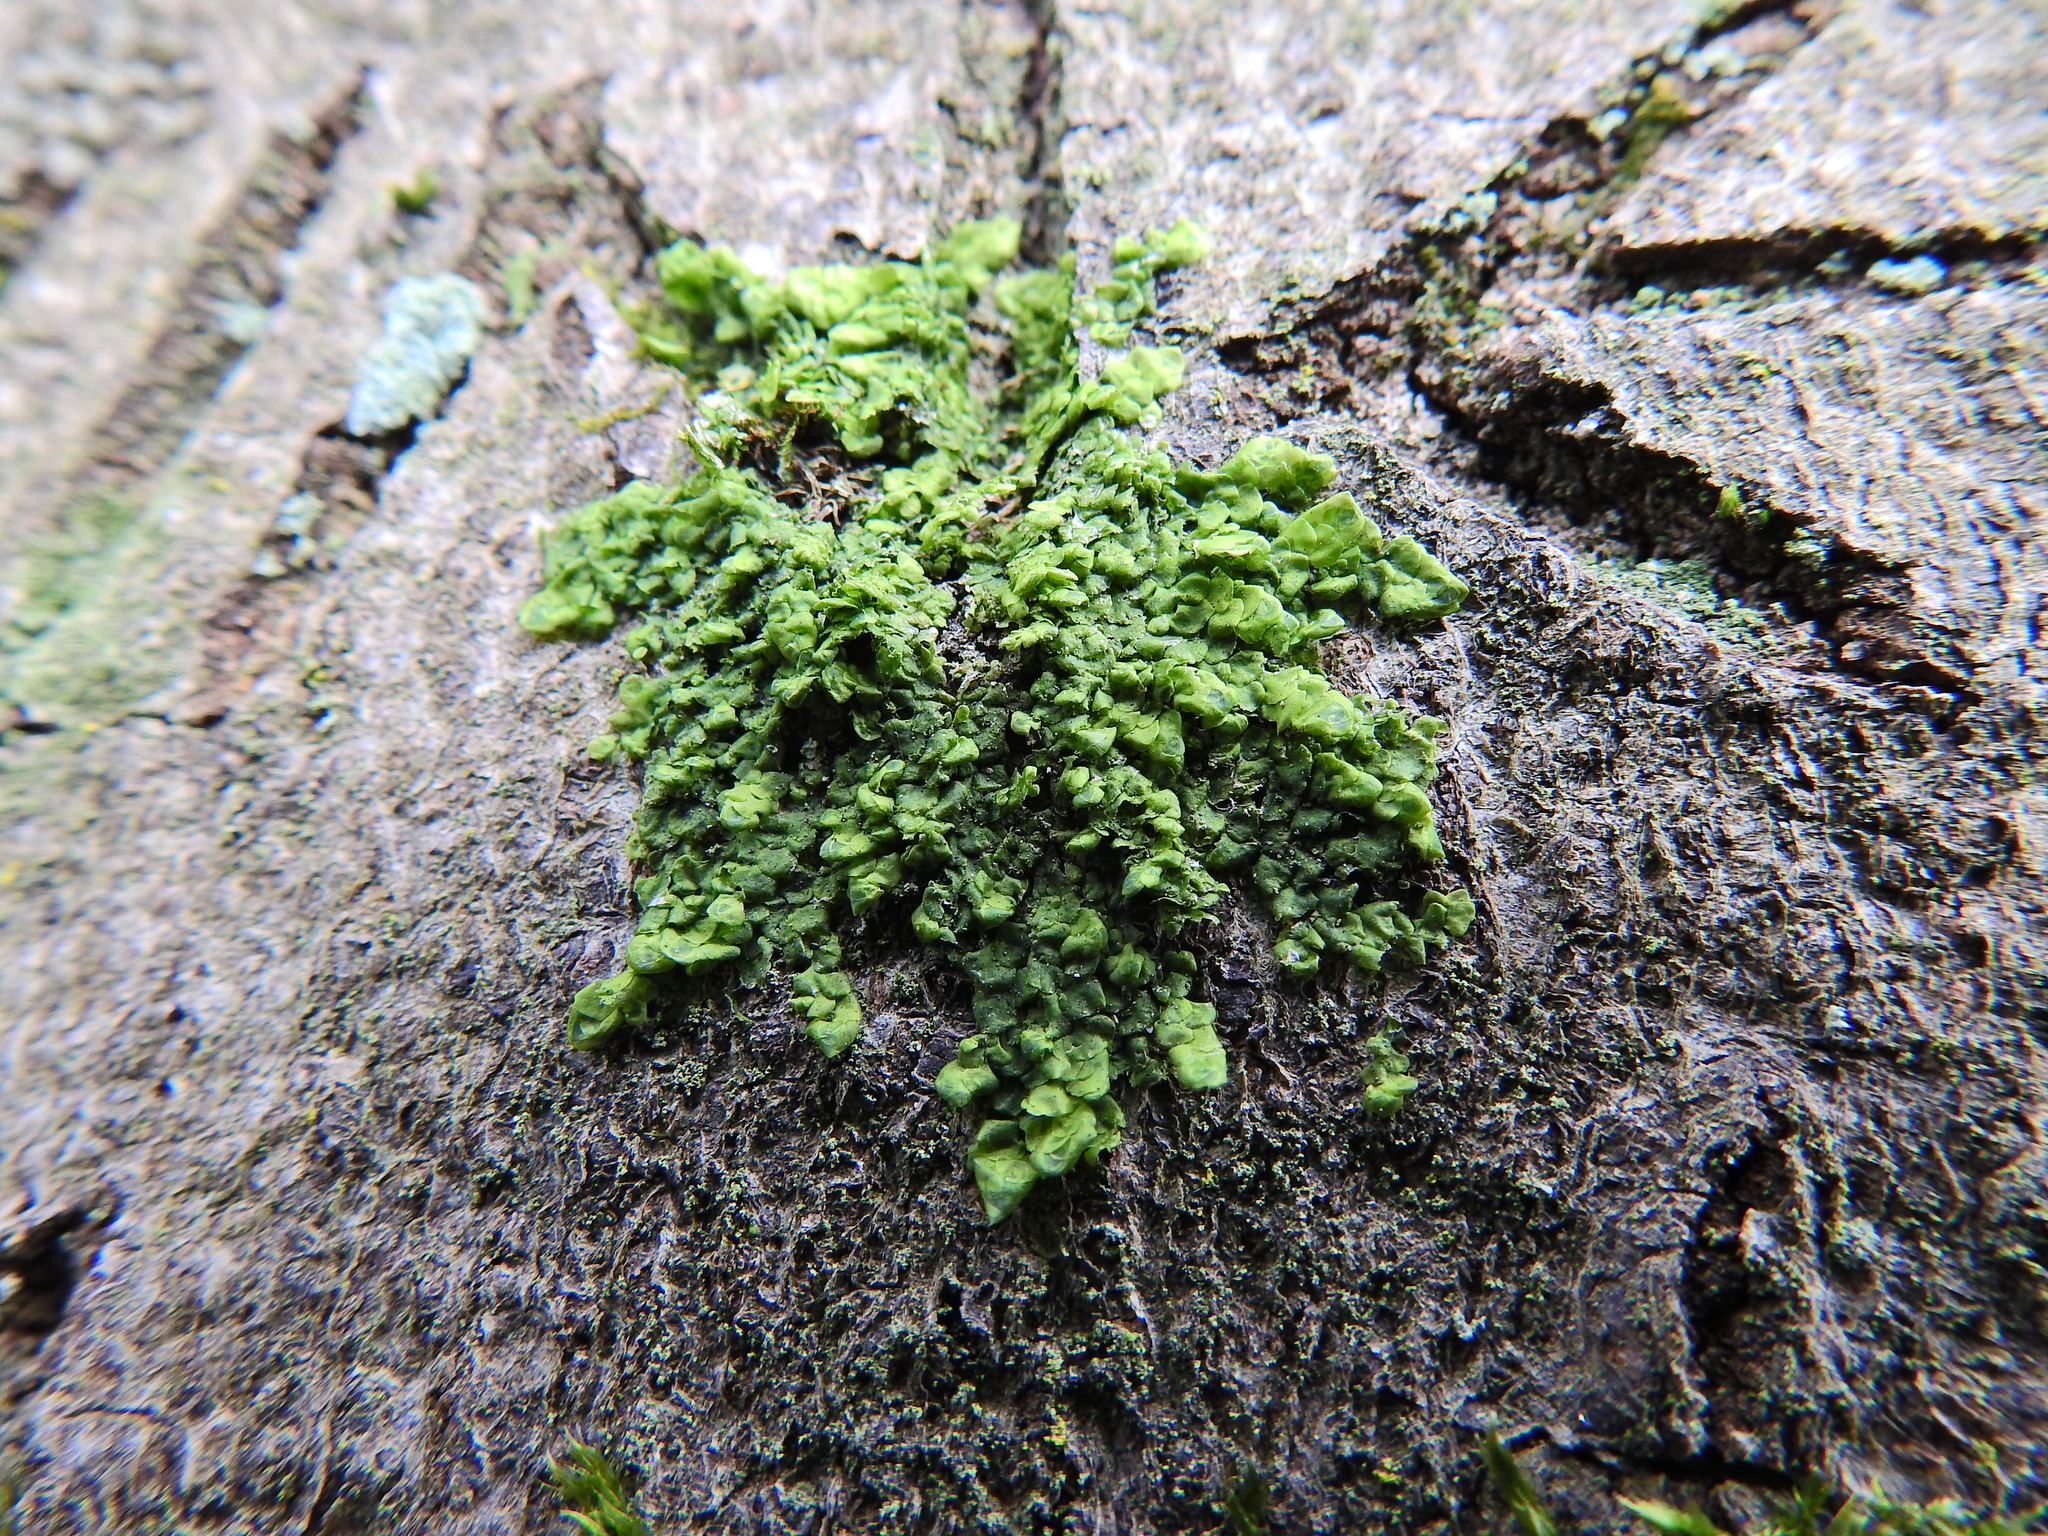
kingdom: Plantae
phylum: Marchantiophyta
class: Jungermanniopsida
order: Porellales
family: Radulaceae
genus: Radula
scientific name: Radula complanata
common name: Flat-leaved scalewort
